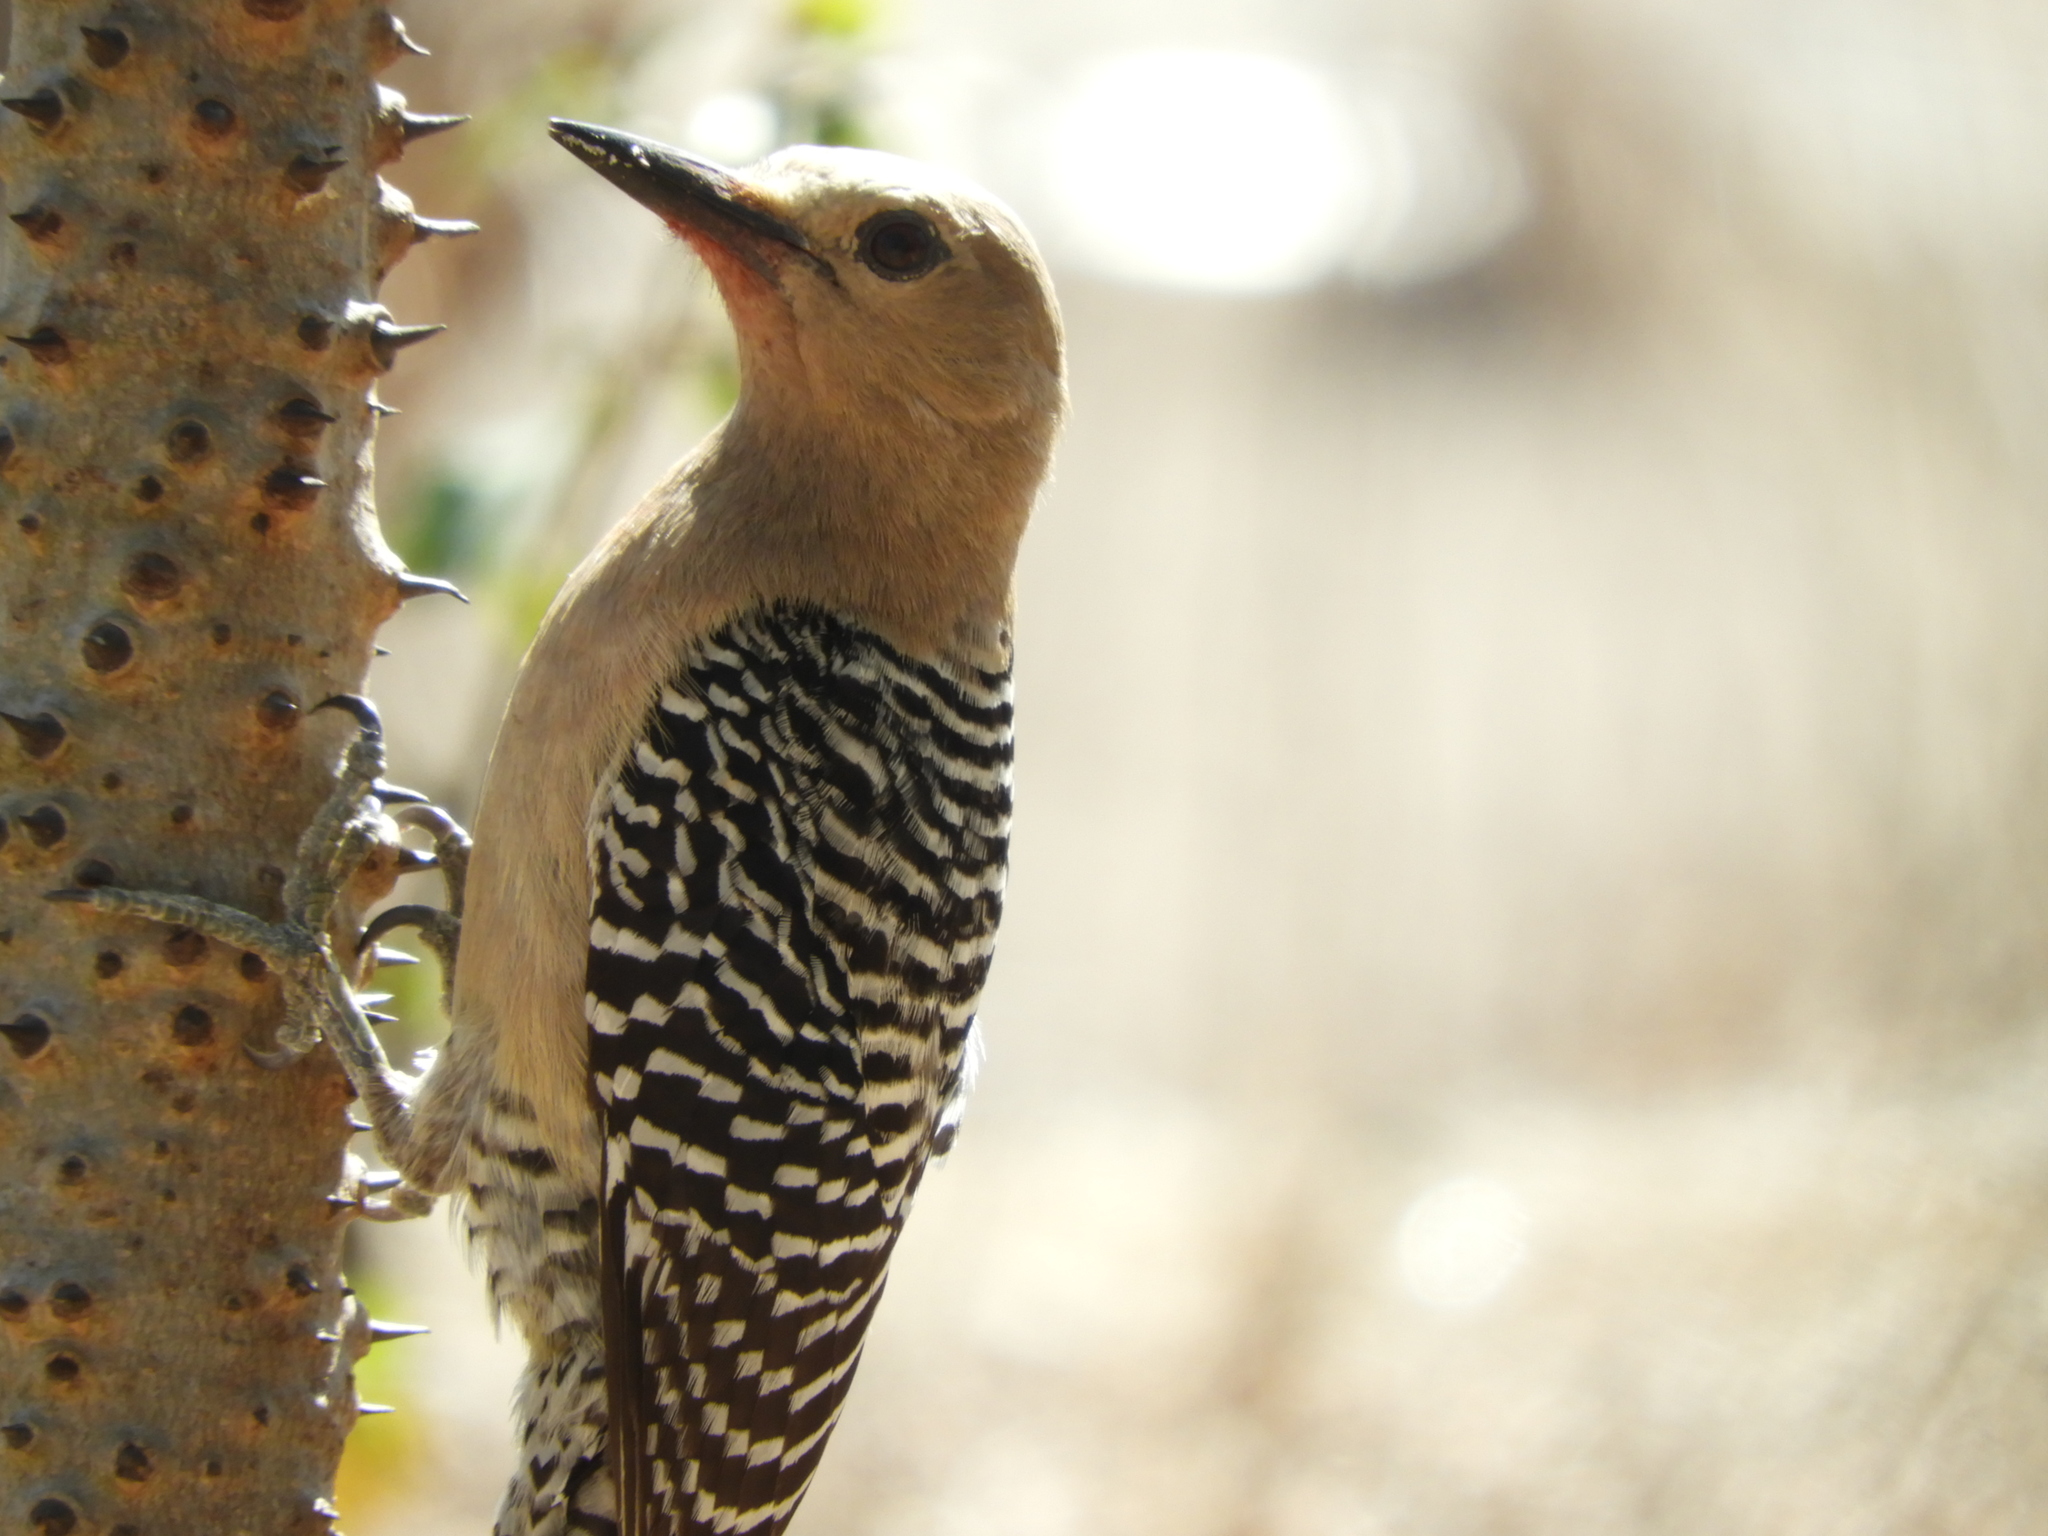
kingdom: Animalia
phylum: Chordata
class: Aves
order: Piciformes
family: Picidae
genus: Melanerpes
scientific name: Melanerpes uropygialis
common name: Gila woodpecker
